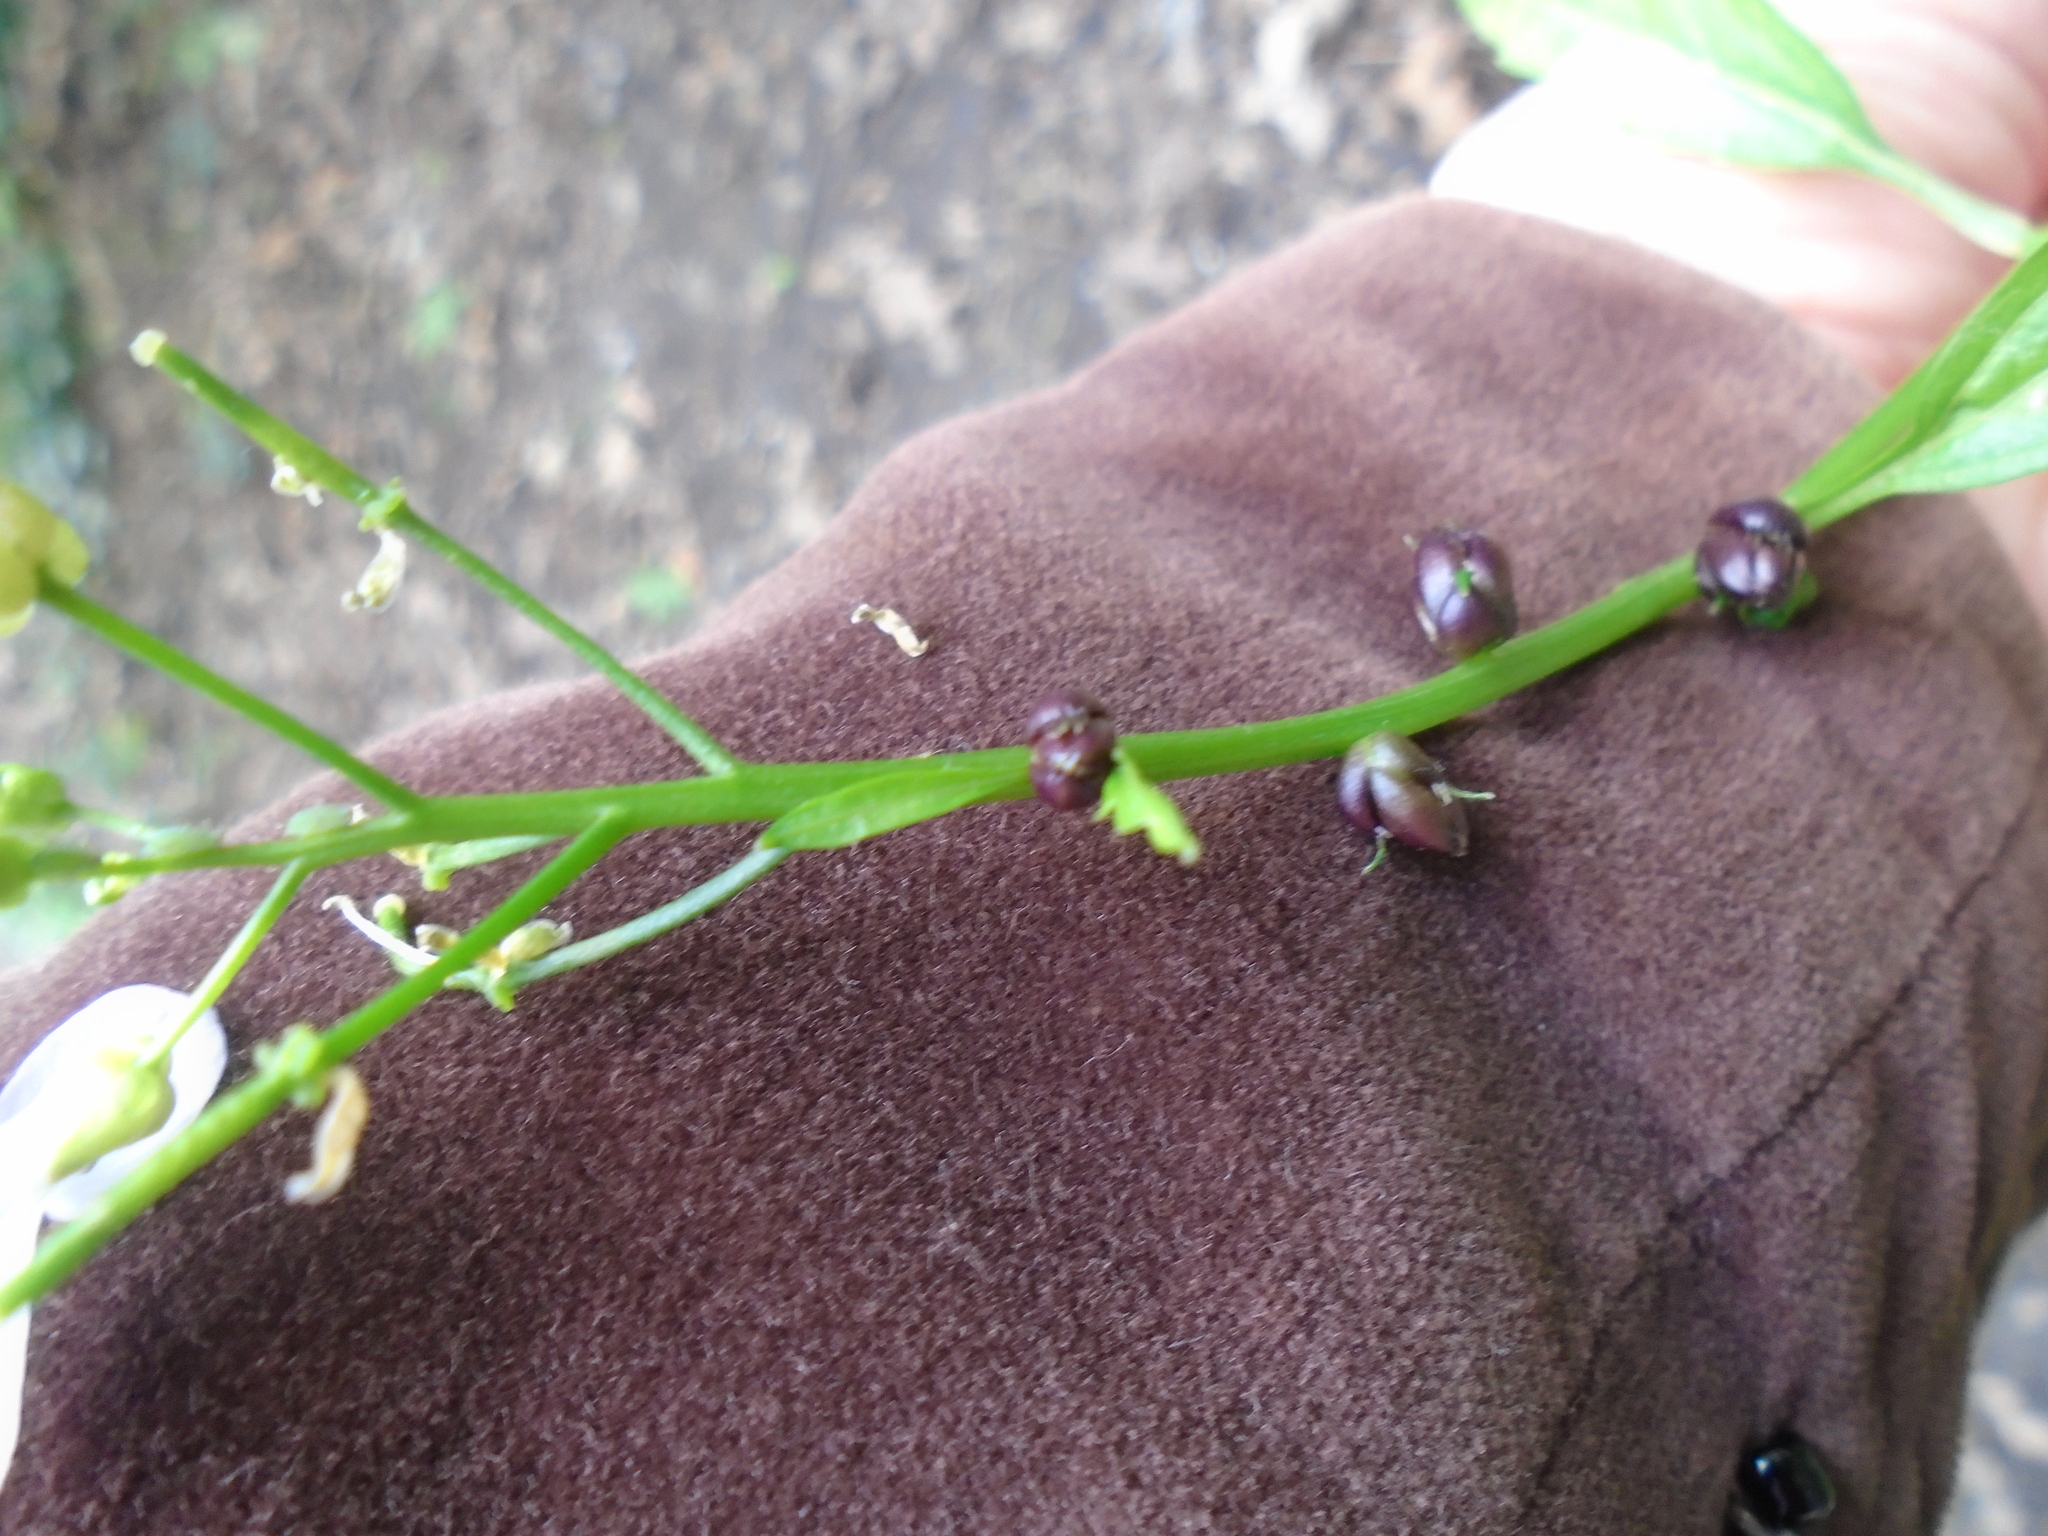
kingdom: Plantae
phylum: Tracheophyta
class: Magnoliopsida
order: Brassicales
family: Brassicaceae
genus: Cardamine
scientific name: Cardamine bulbifera
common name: Coralroot bittercress
